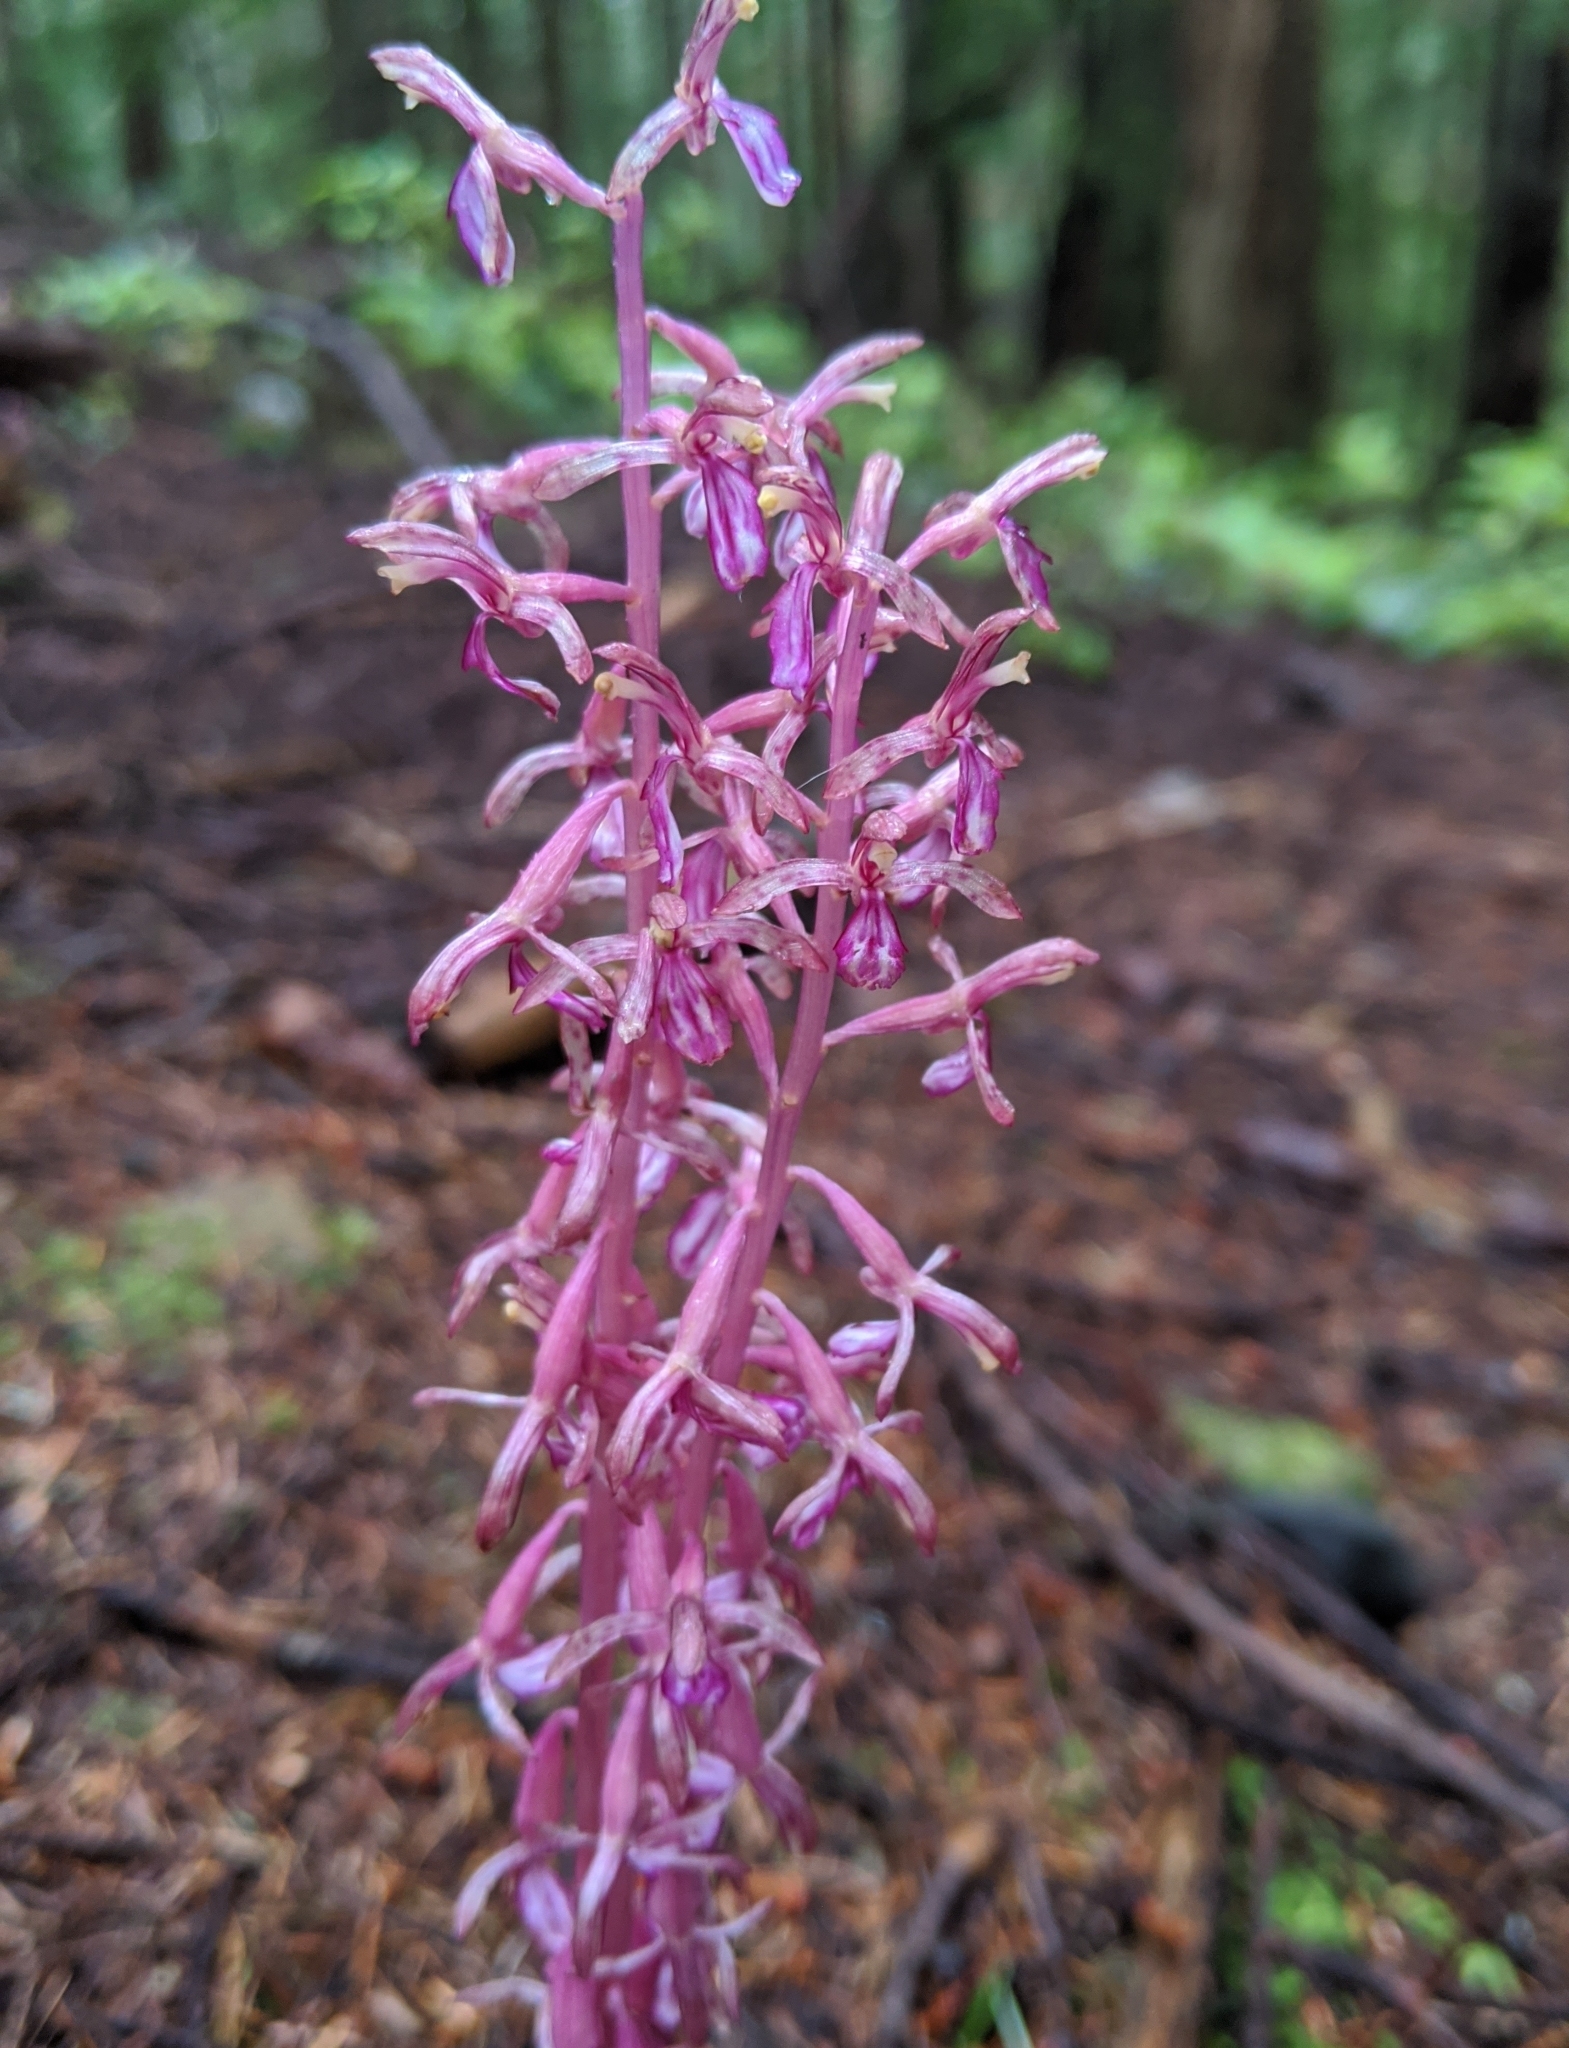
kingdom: Plantae
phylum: Tracheophyta
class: Liliopsida
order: Asparagales
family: Orchidaceae
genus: Corallorhiza
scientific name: Corallorhiza mertensiana
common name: Pacific coralroot
